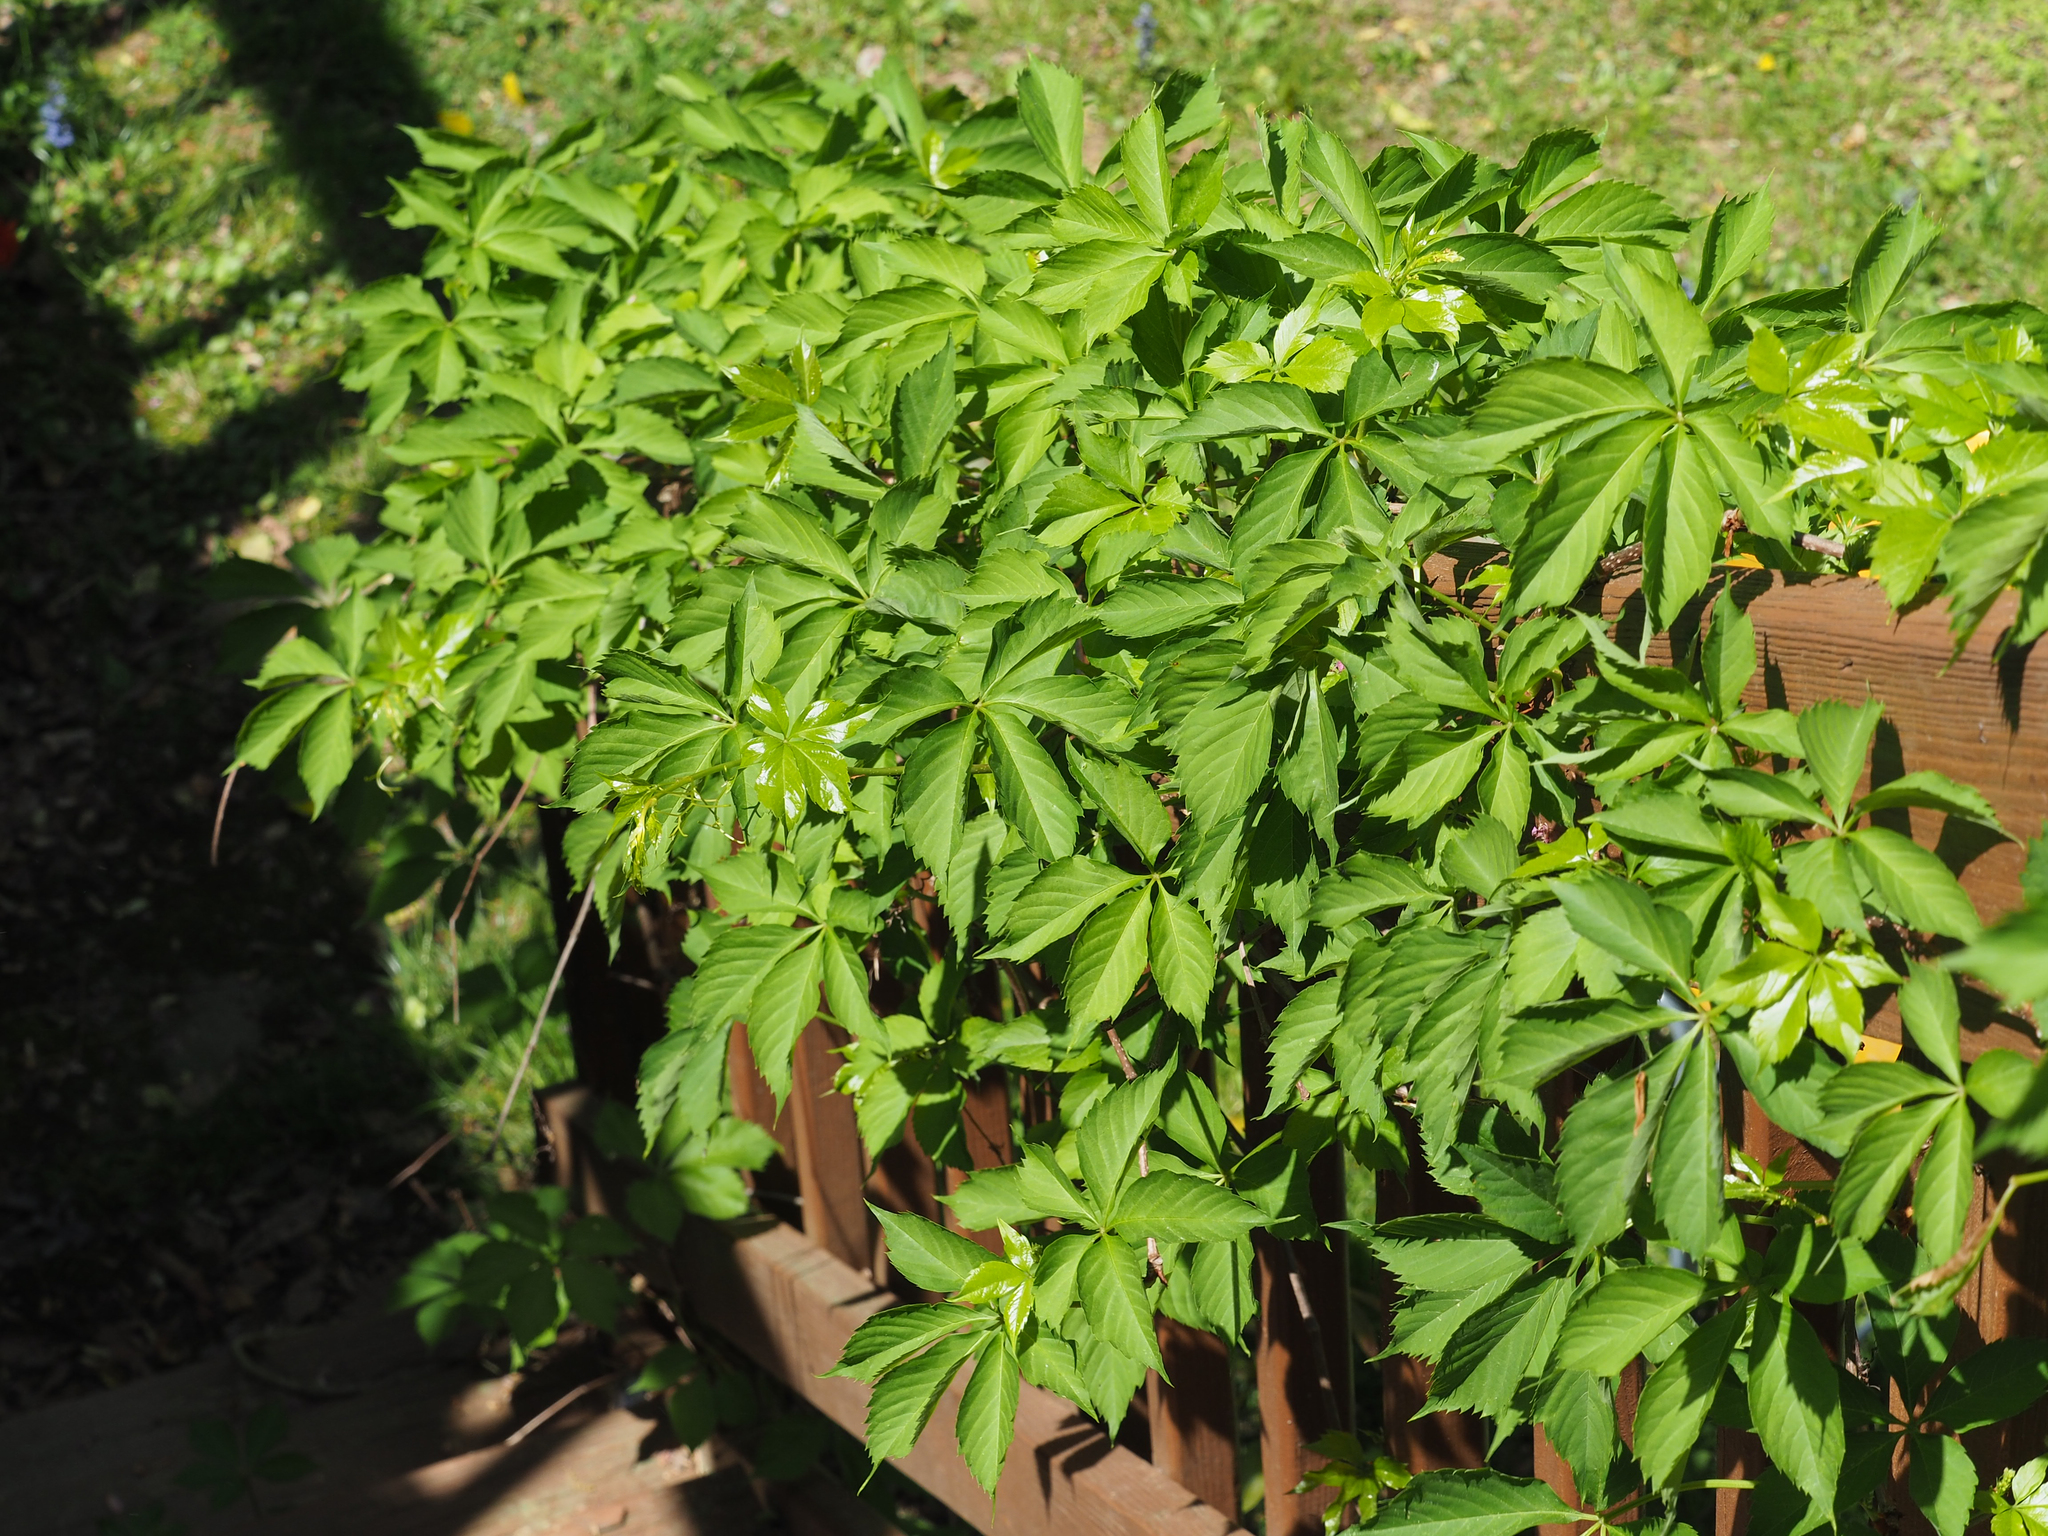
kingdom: Plantae
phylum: Tracheophyta
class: Magnoliopsida
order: Vitales
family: Vitaceae
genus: Parthenocissus
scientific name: Parthenocissus quinquefolia
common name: Virginia-creeper
